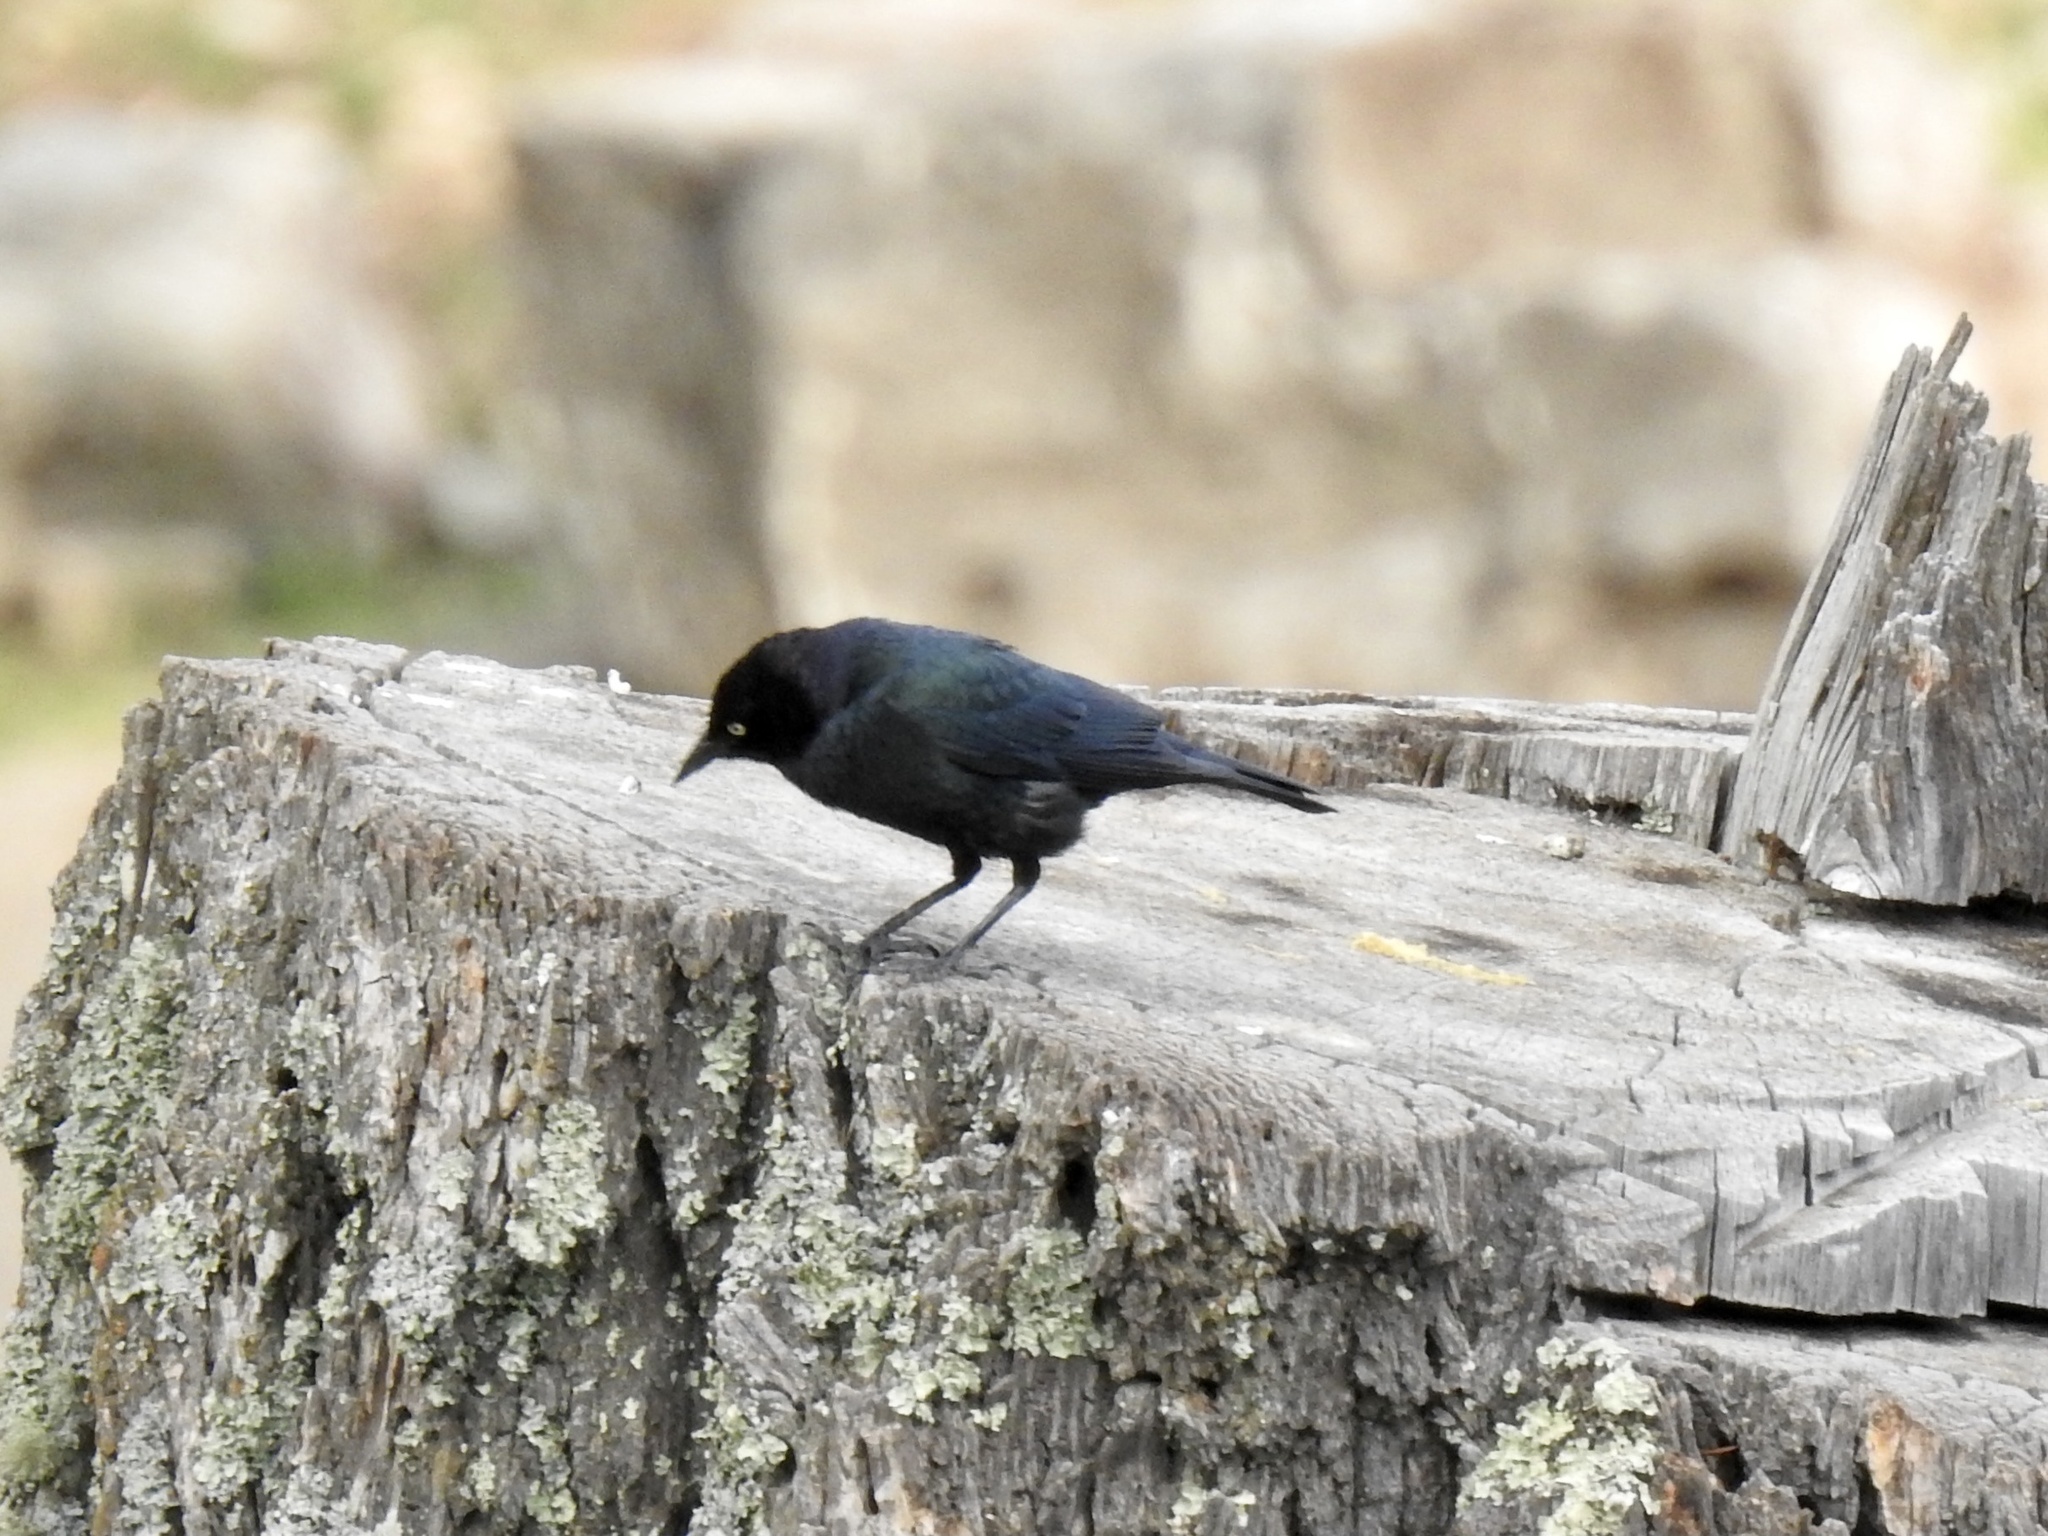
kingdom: Animalia
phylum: Chordata
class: Aves
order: Passeriformes
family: Icteridae
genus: Euphagus
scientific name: Euphagus cyanocephalus
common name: Brewer's blackbird
